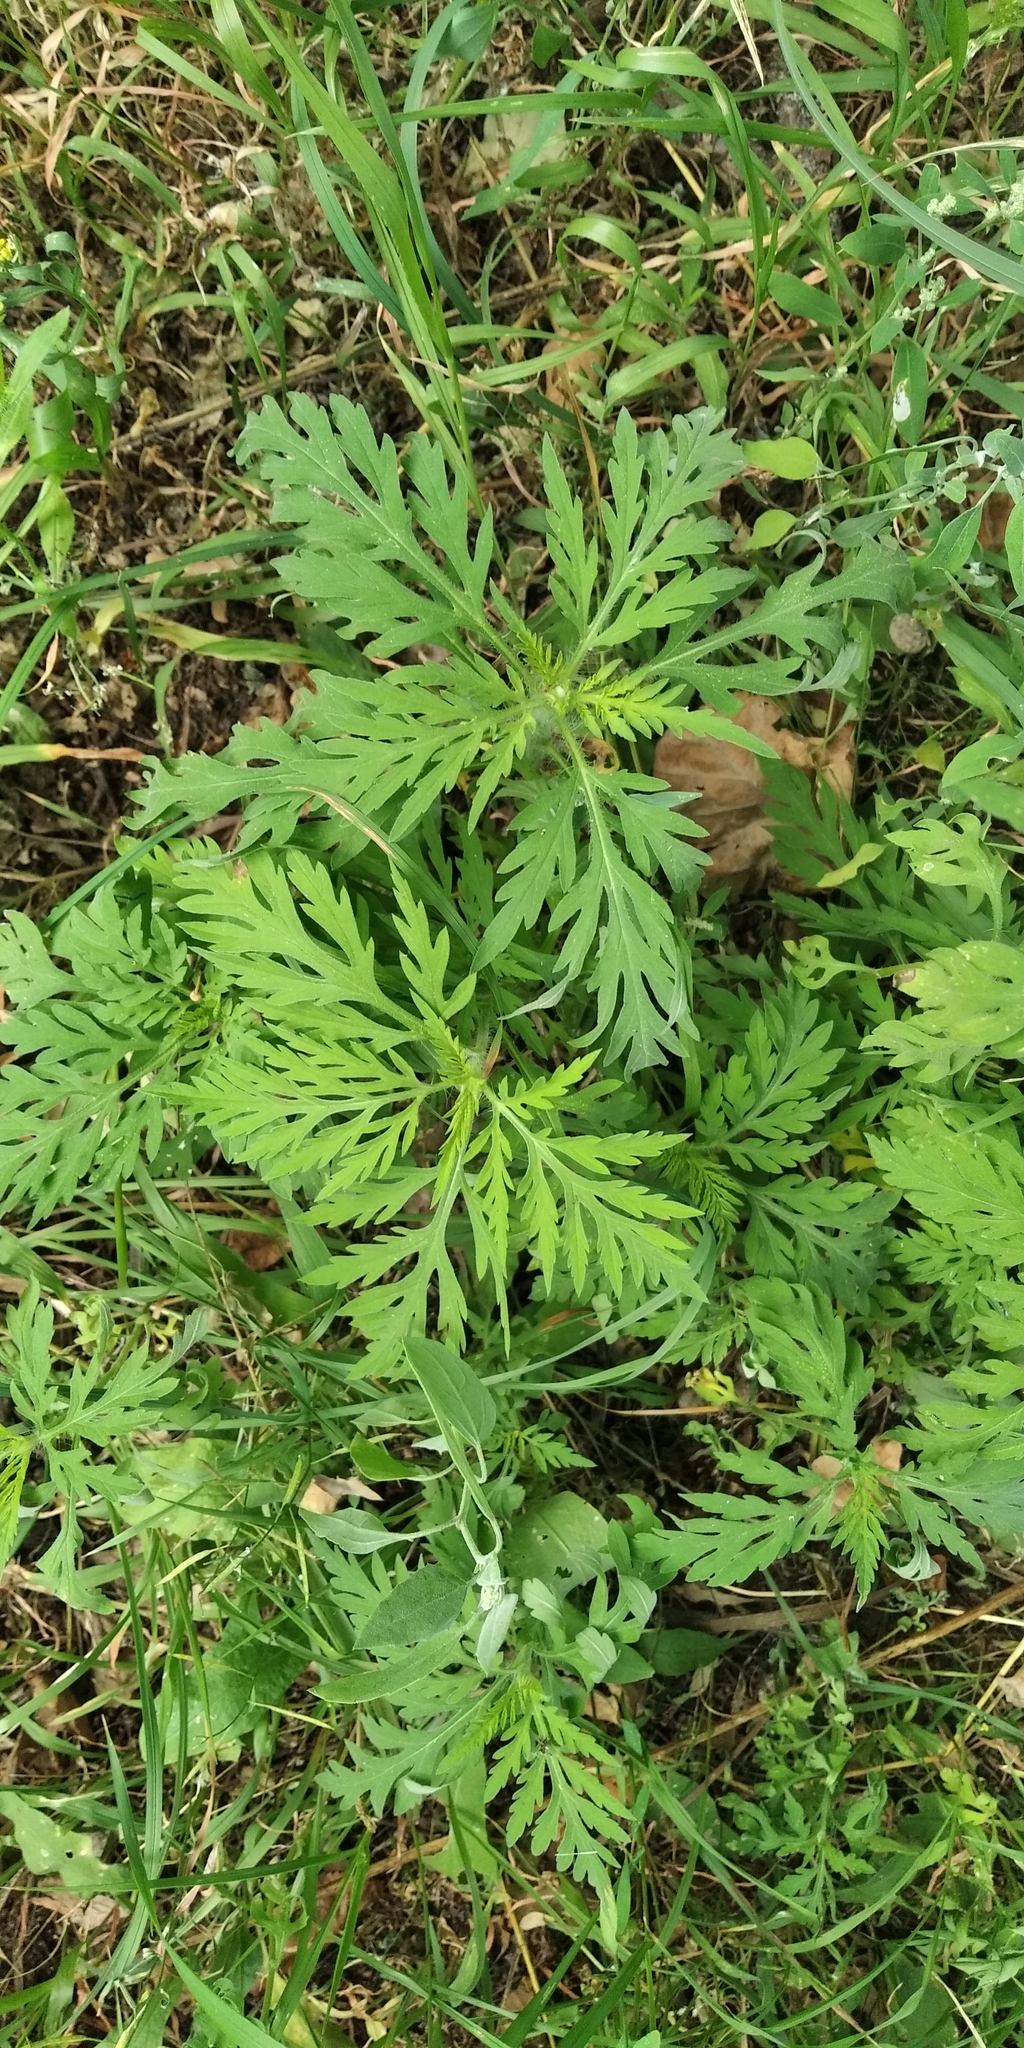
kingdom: Plantae
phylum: Tracheophyta
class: Magnoliopsida
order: Asterales
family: Asteraceae
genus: Artemisia
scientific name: Artemisia vulgaris
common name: Mugwort
